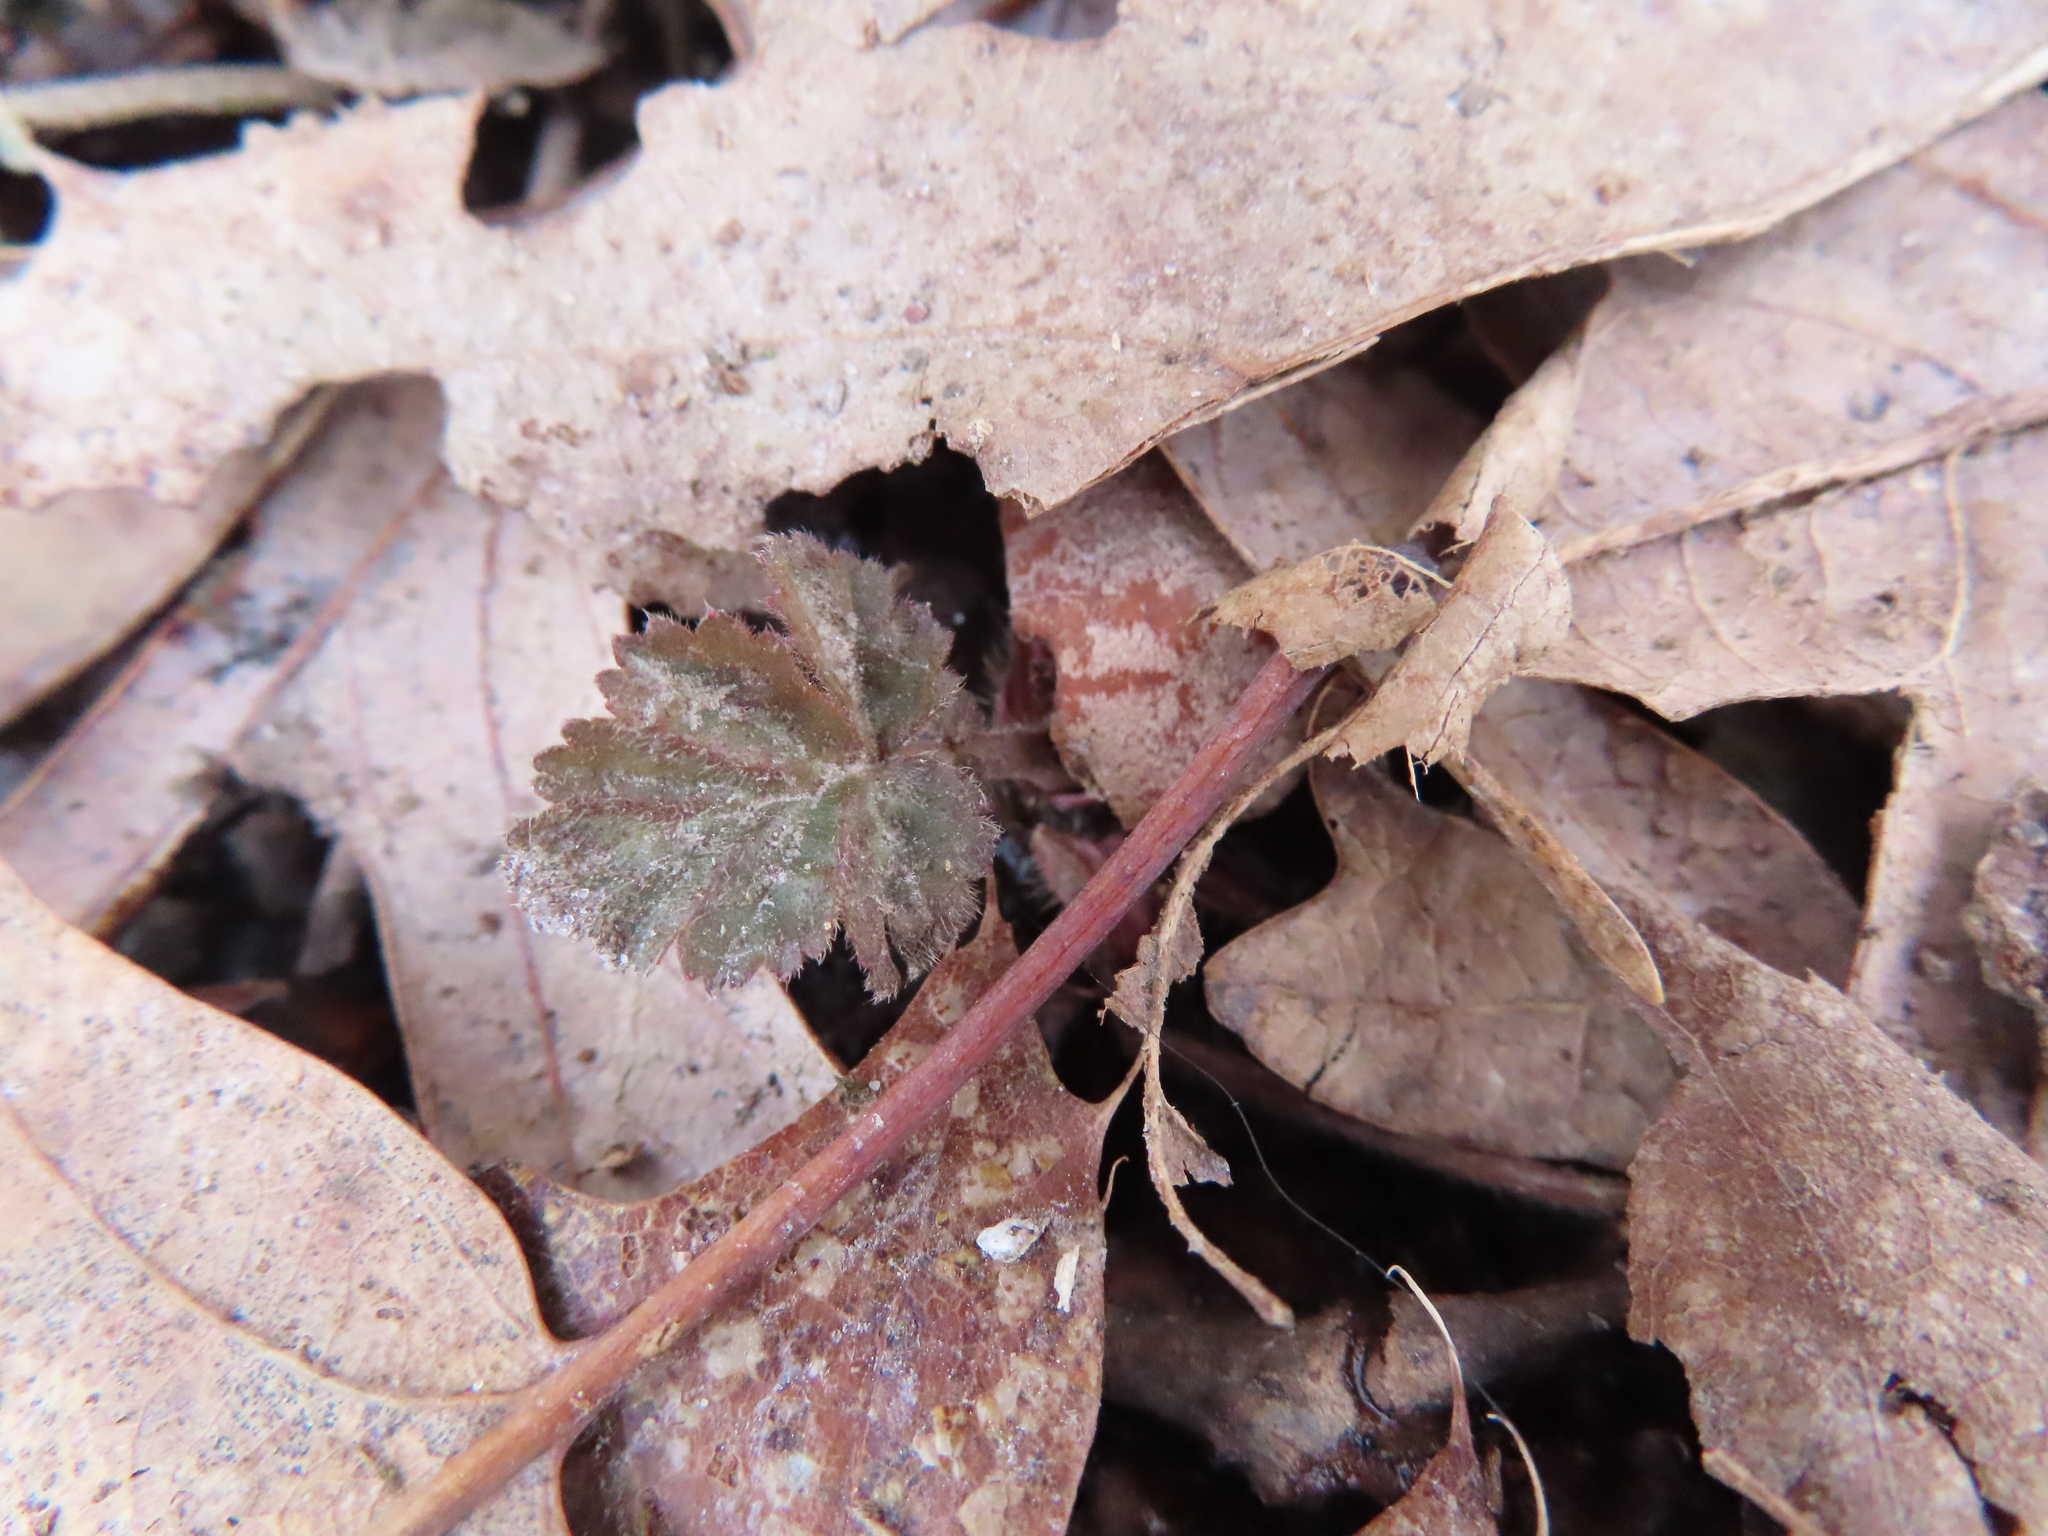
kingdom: Plantae
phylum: Tracheophyta
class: Magnoliopsida
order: Rosales
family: Rosaceae
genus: Geum
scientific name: Geum canadense
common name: White avens
